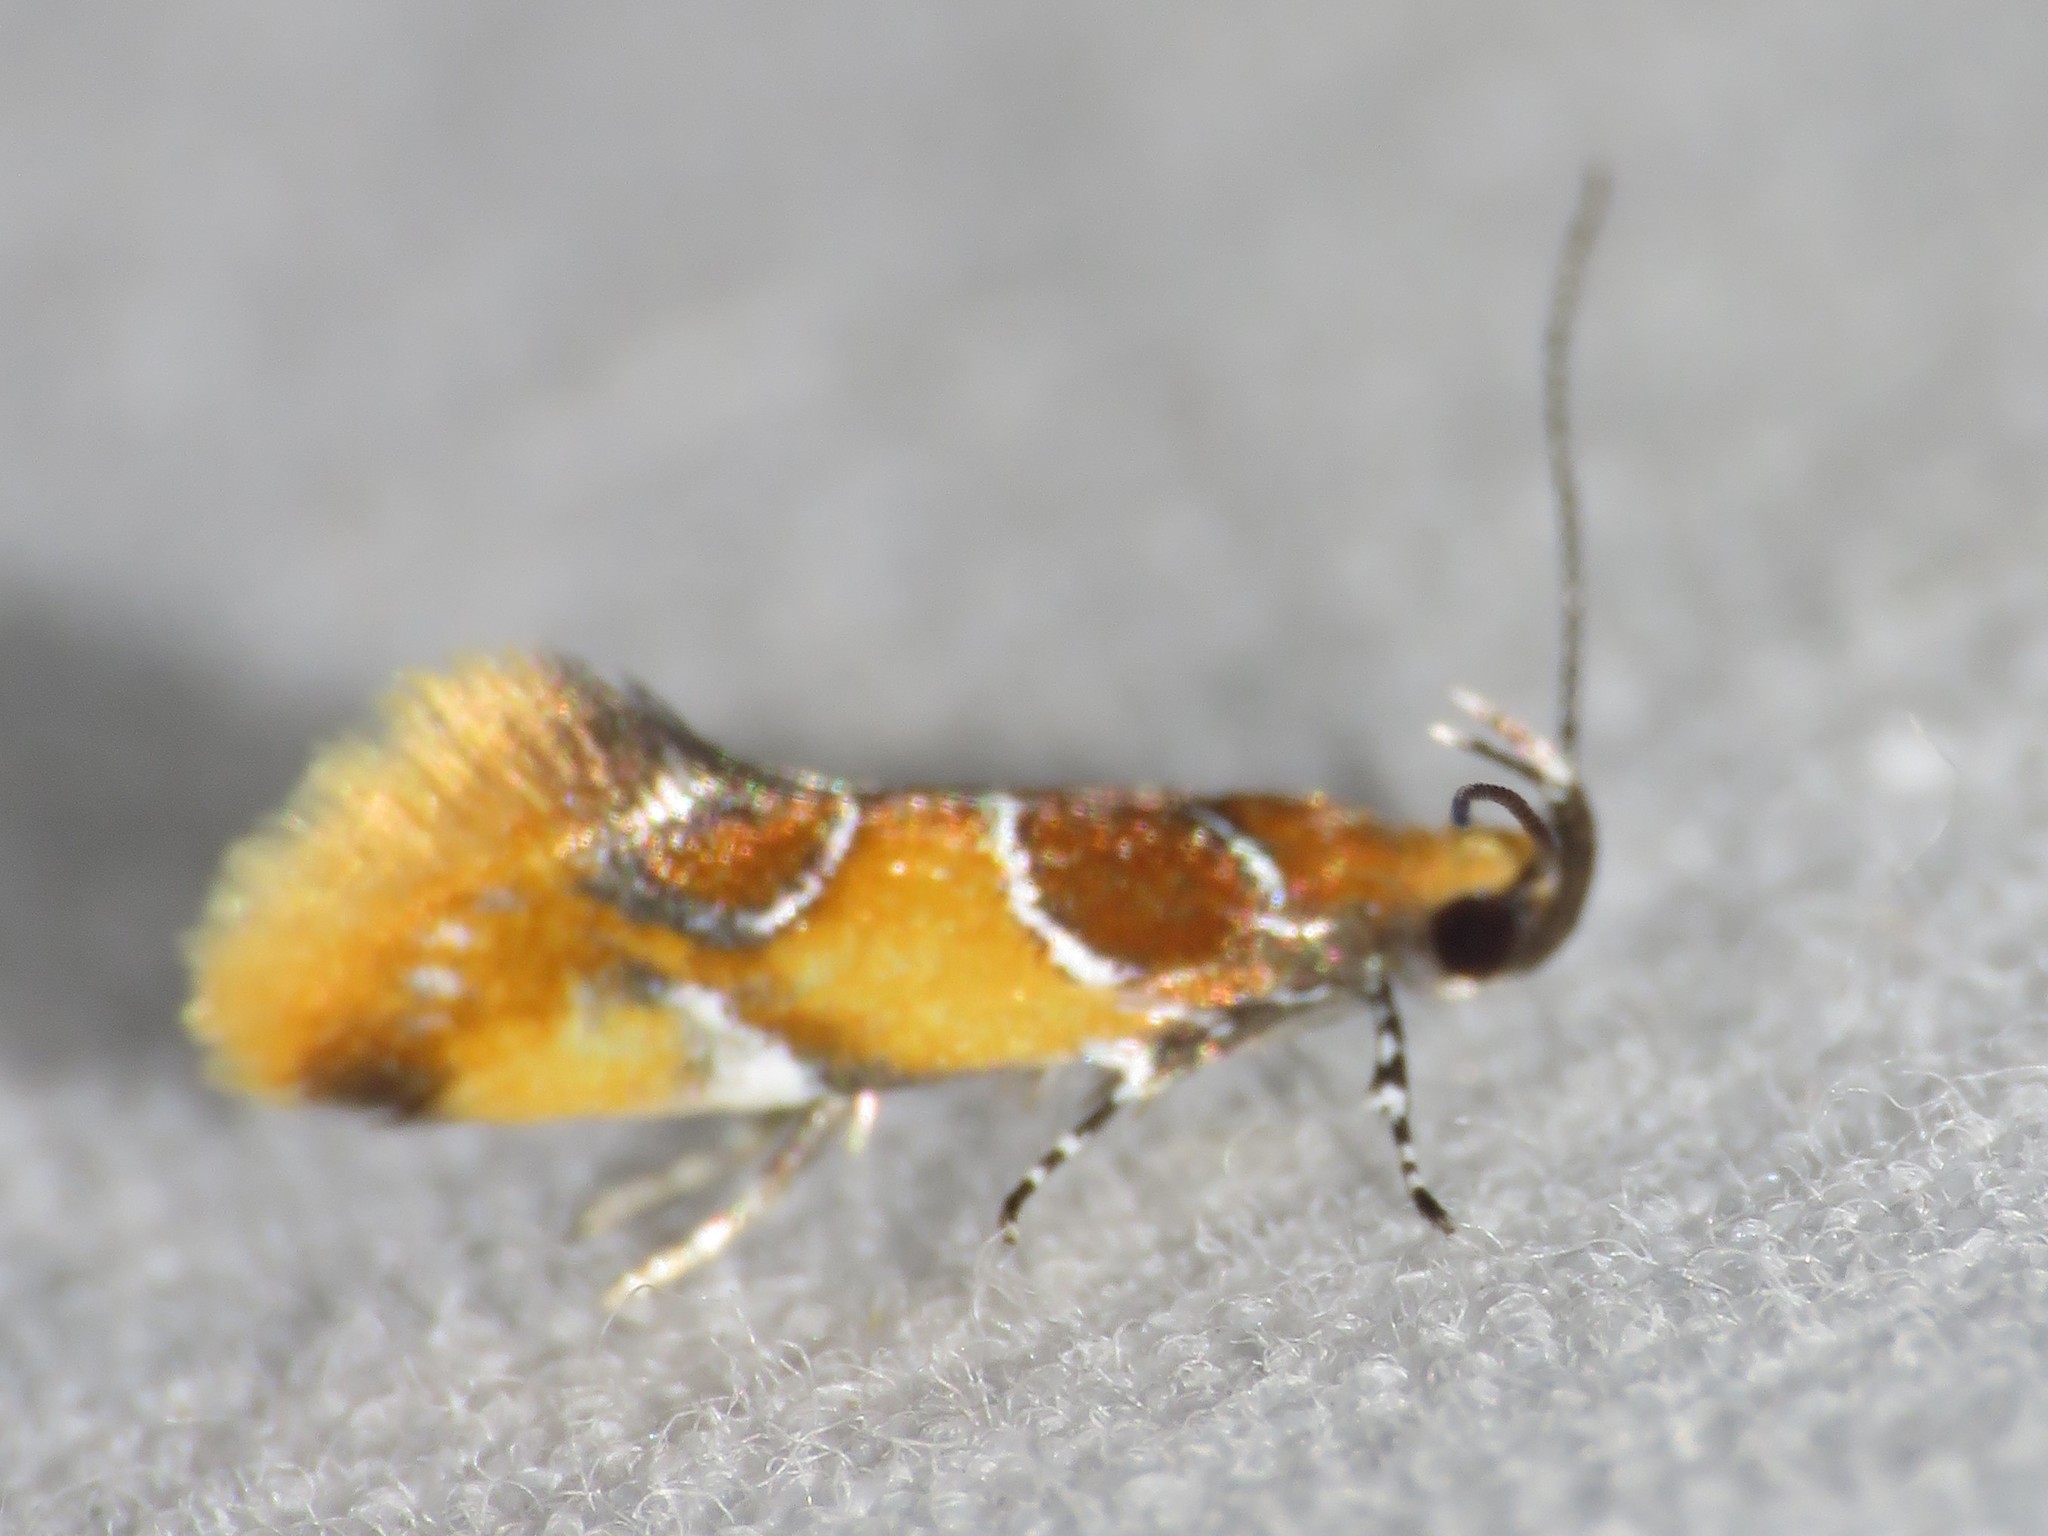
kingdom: Animalia
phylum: Arthropoda
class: Insecta
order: Lepidoptera
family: Oecophoridae
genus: Callima
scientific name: Callima argenticinctella
